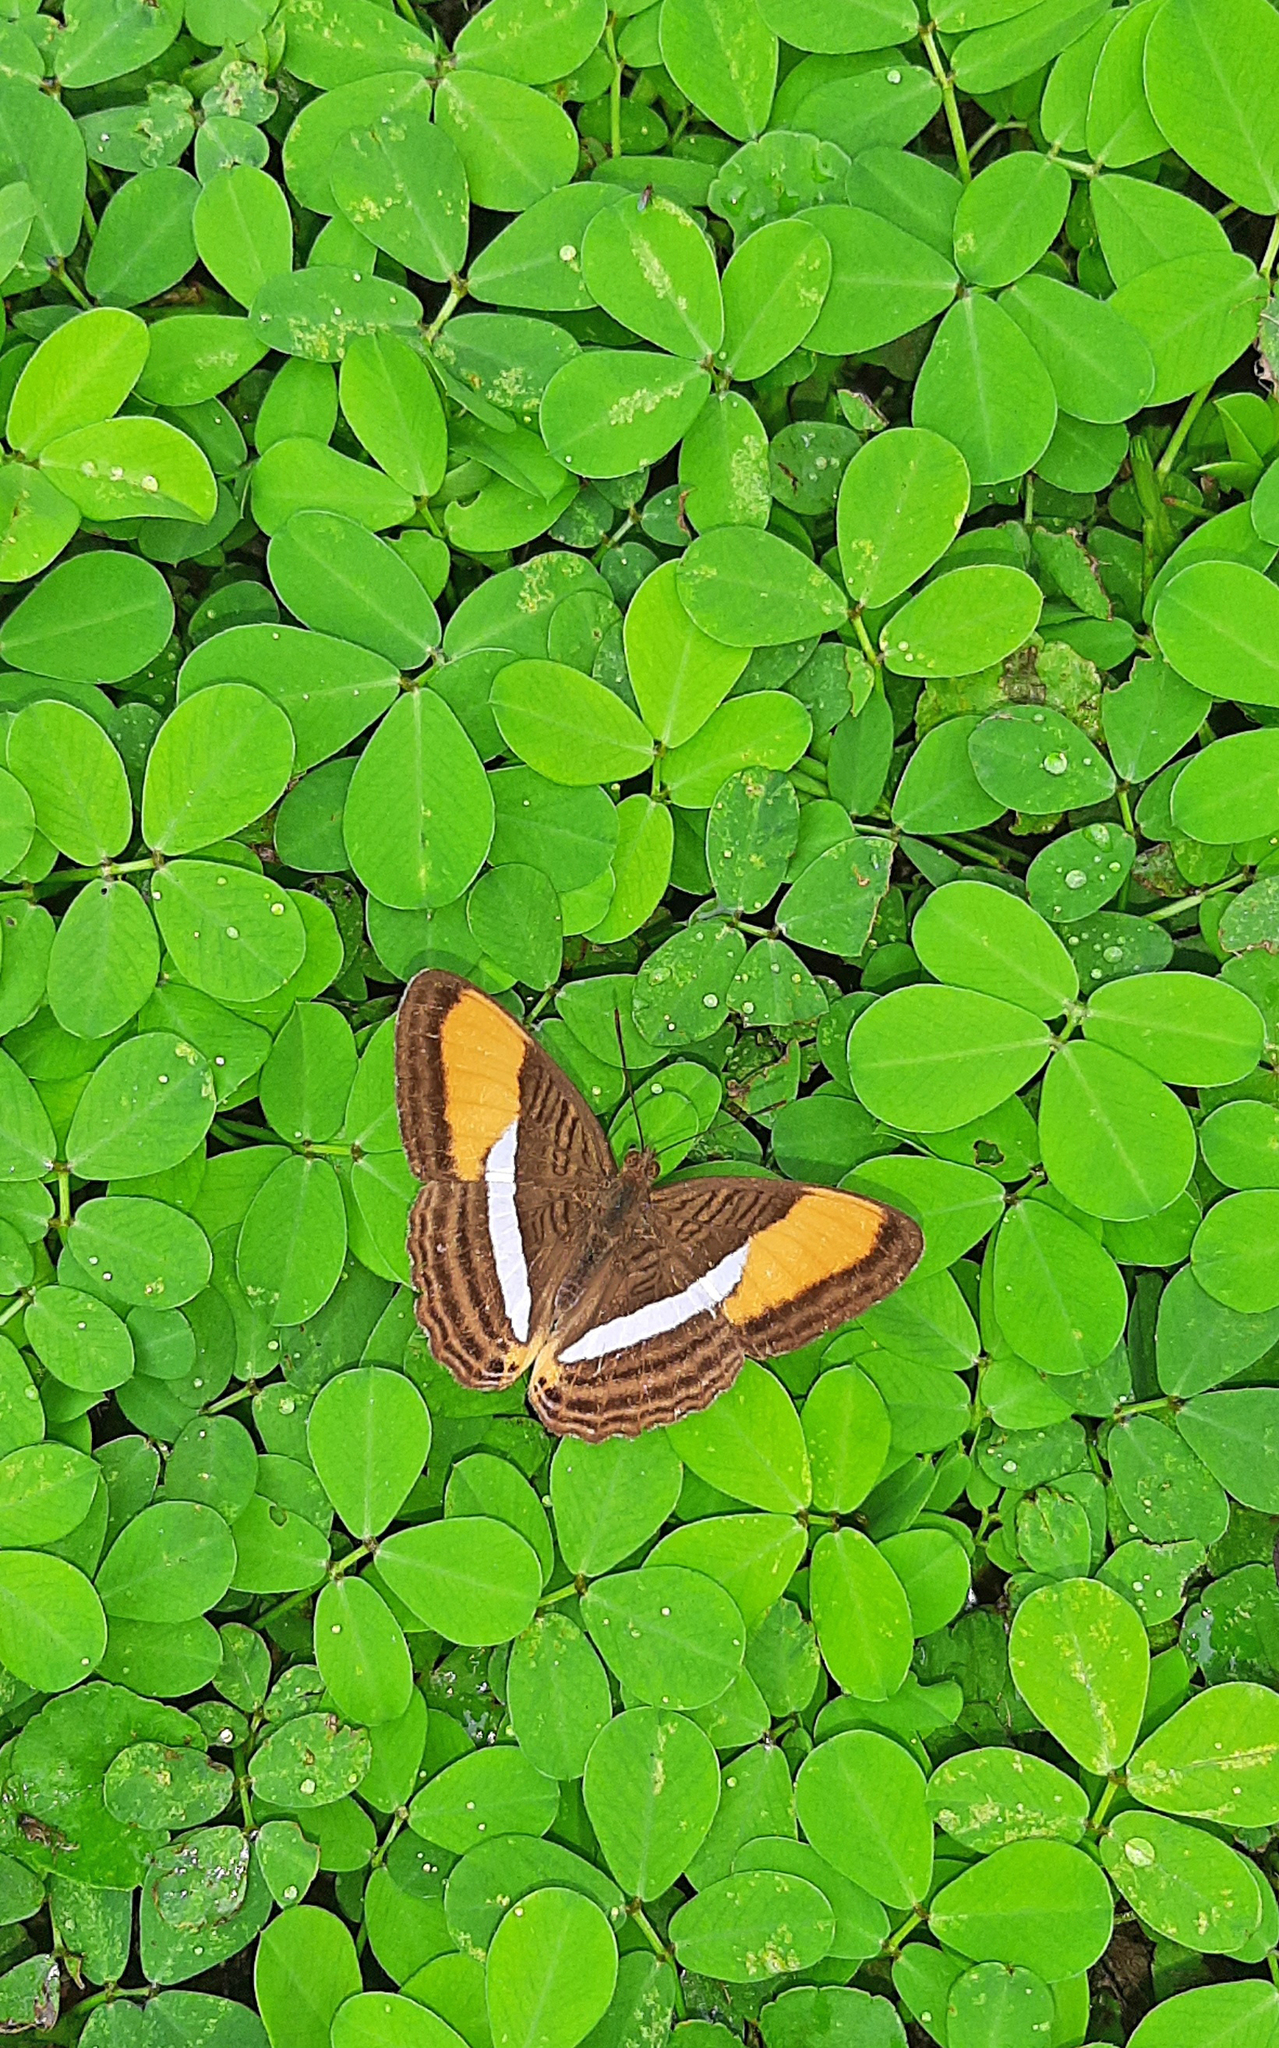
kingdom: Animalia
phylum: Arthropoda
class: Insecta
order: Lepidoptera
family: Nymphalidae
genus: Limenitis
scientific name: Limenitis cytherea
